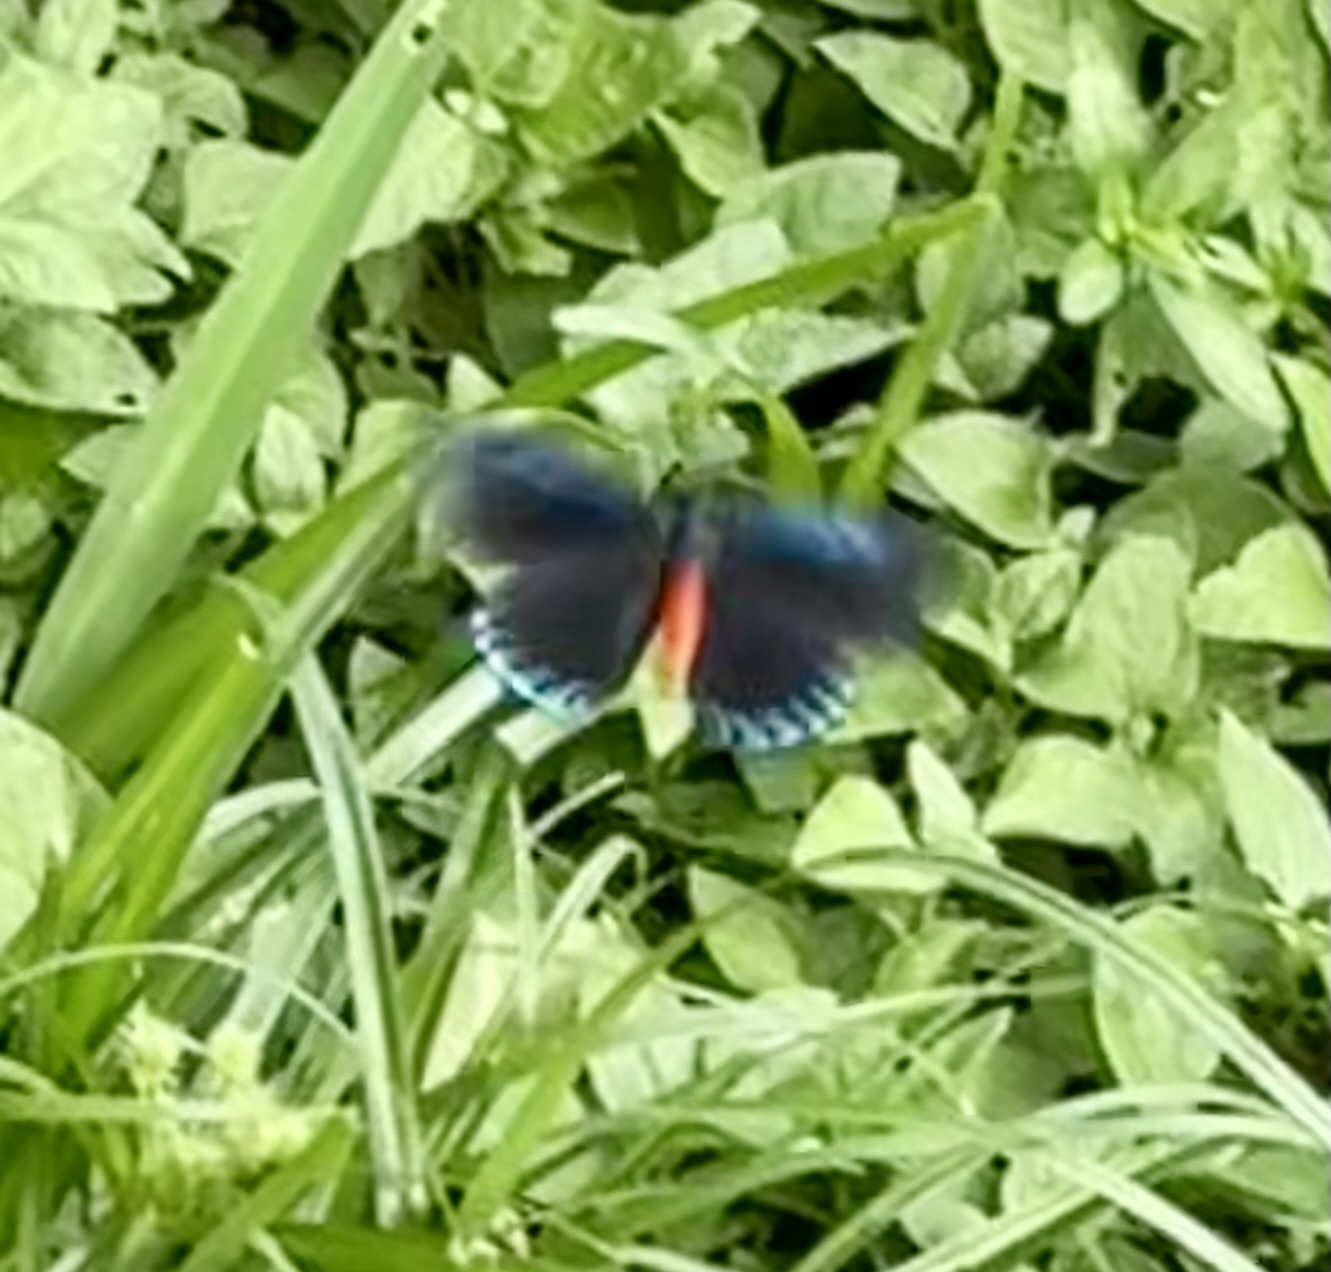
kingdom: Animalia
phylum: Arthropoda
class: Insecta
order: Lepidoptera
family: Lycaenidae
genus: Eumaeus
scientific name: Eumaeus atala
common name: Atala
